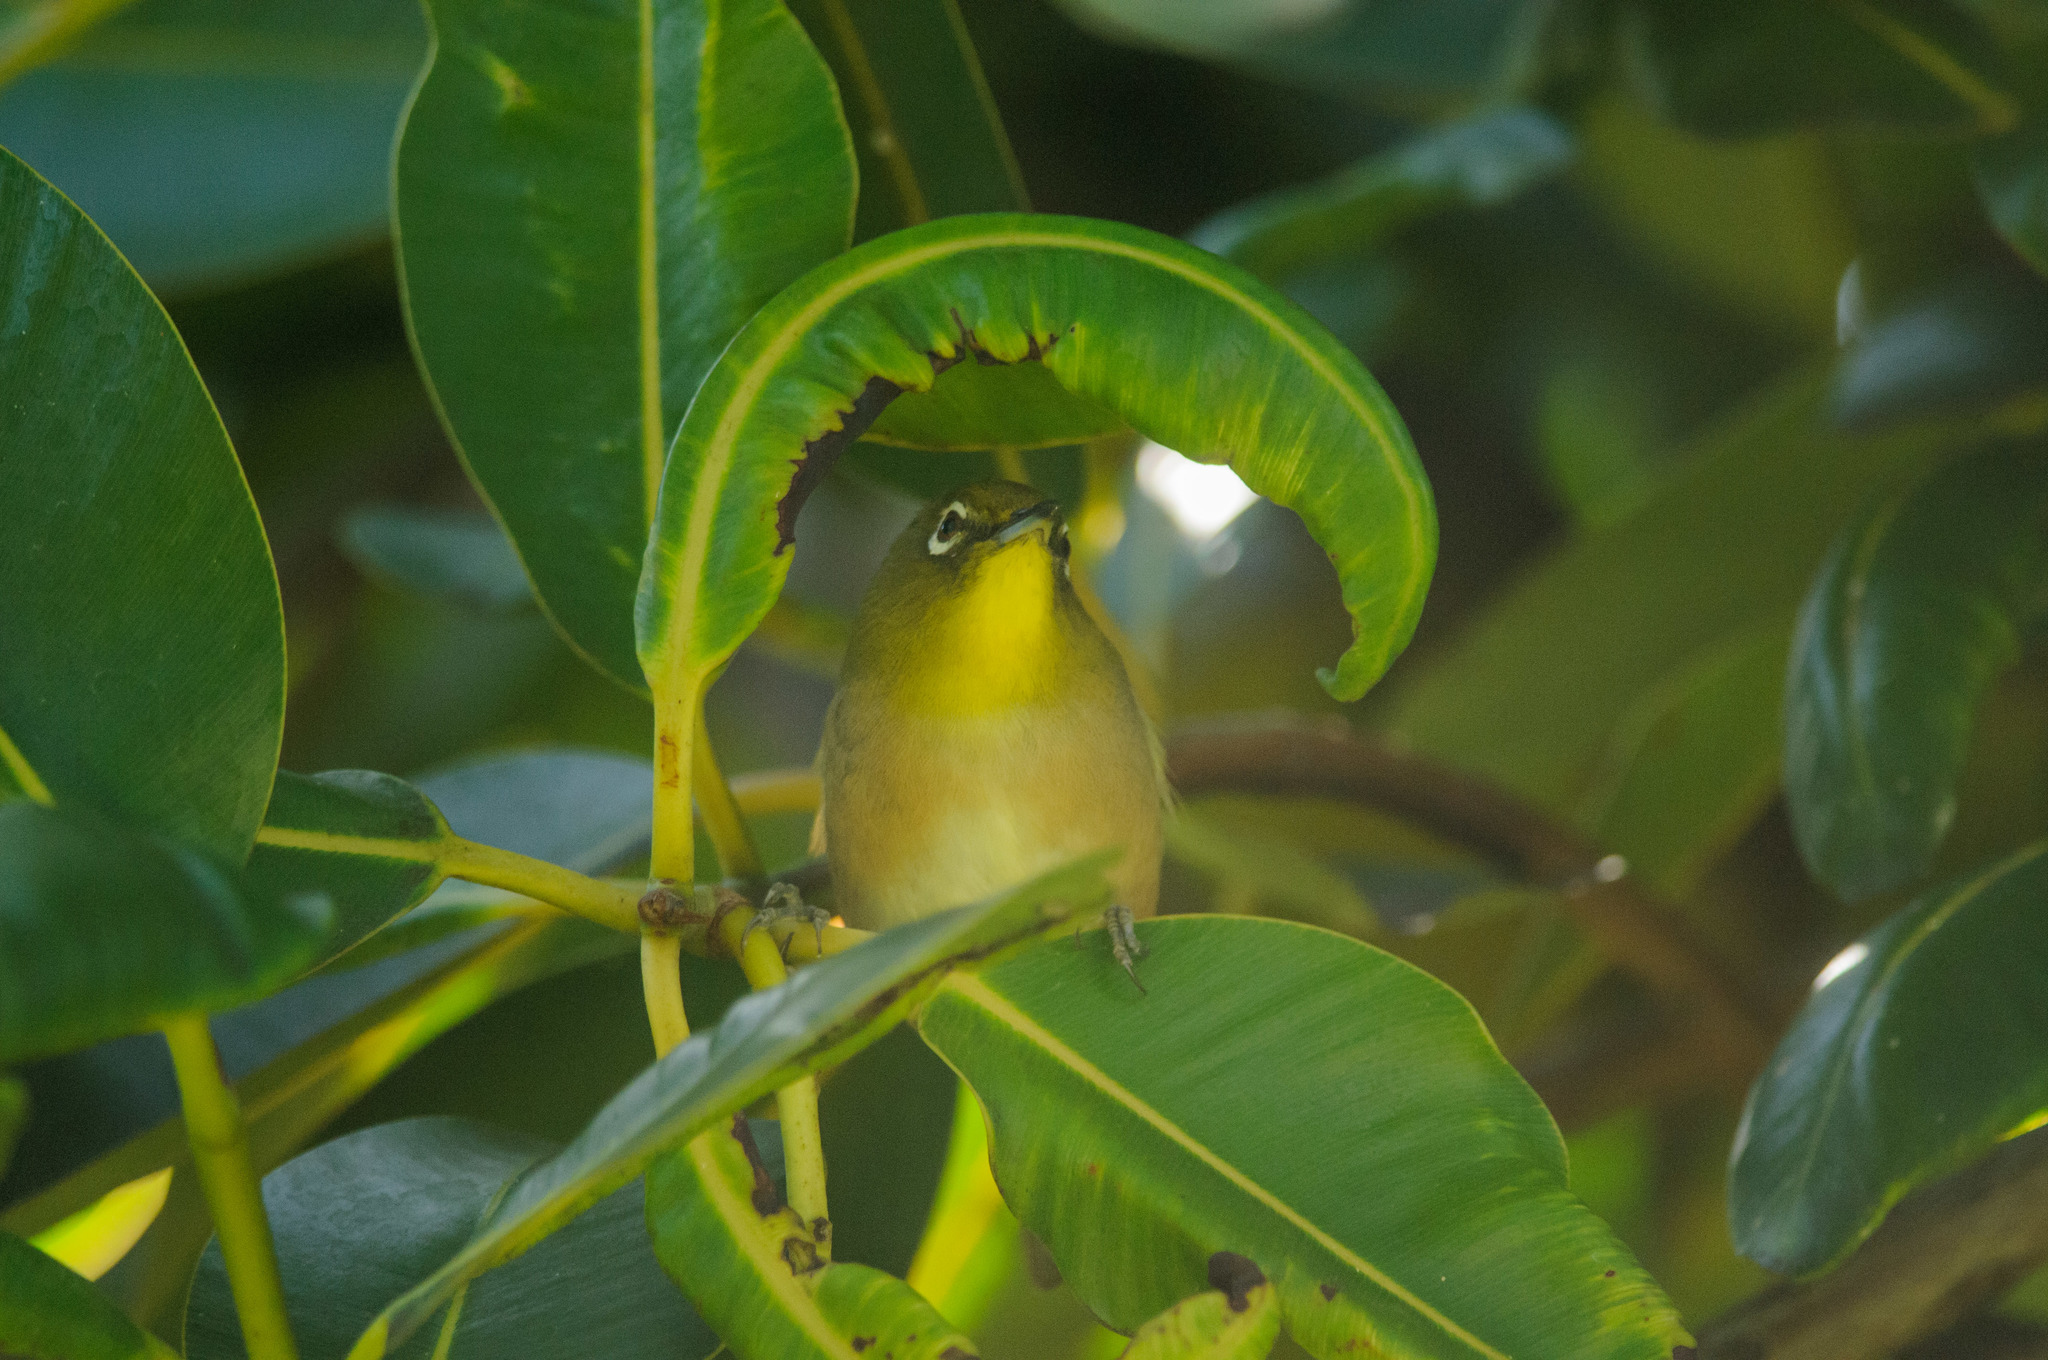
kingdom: Animalia
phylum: Chordata
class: Aves
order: Passeriformes
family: Zosteropidae
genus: Zosterops
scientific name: Zosterops japonicus
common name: Japanese white-eye
